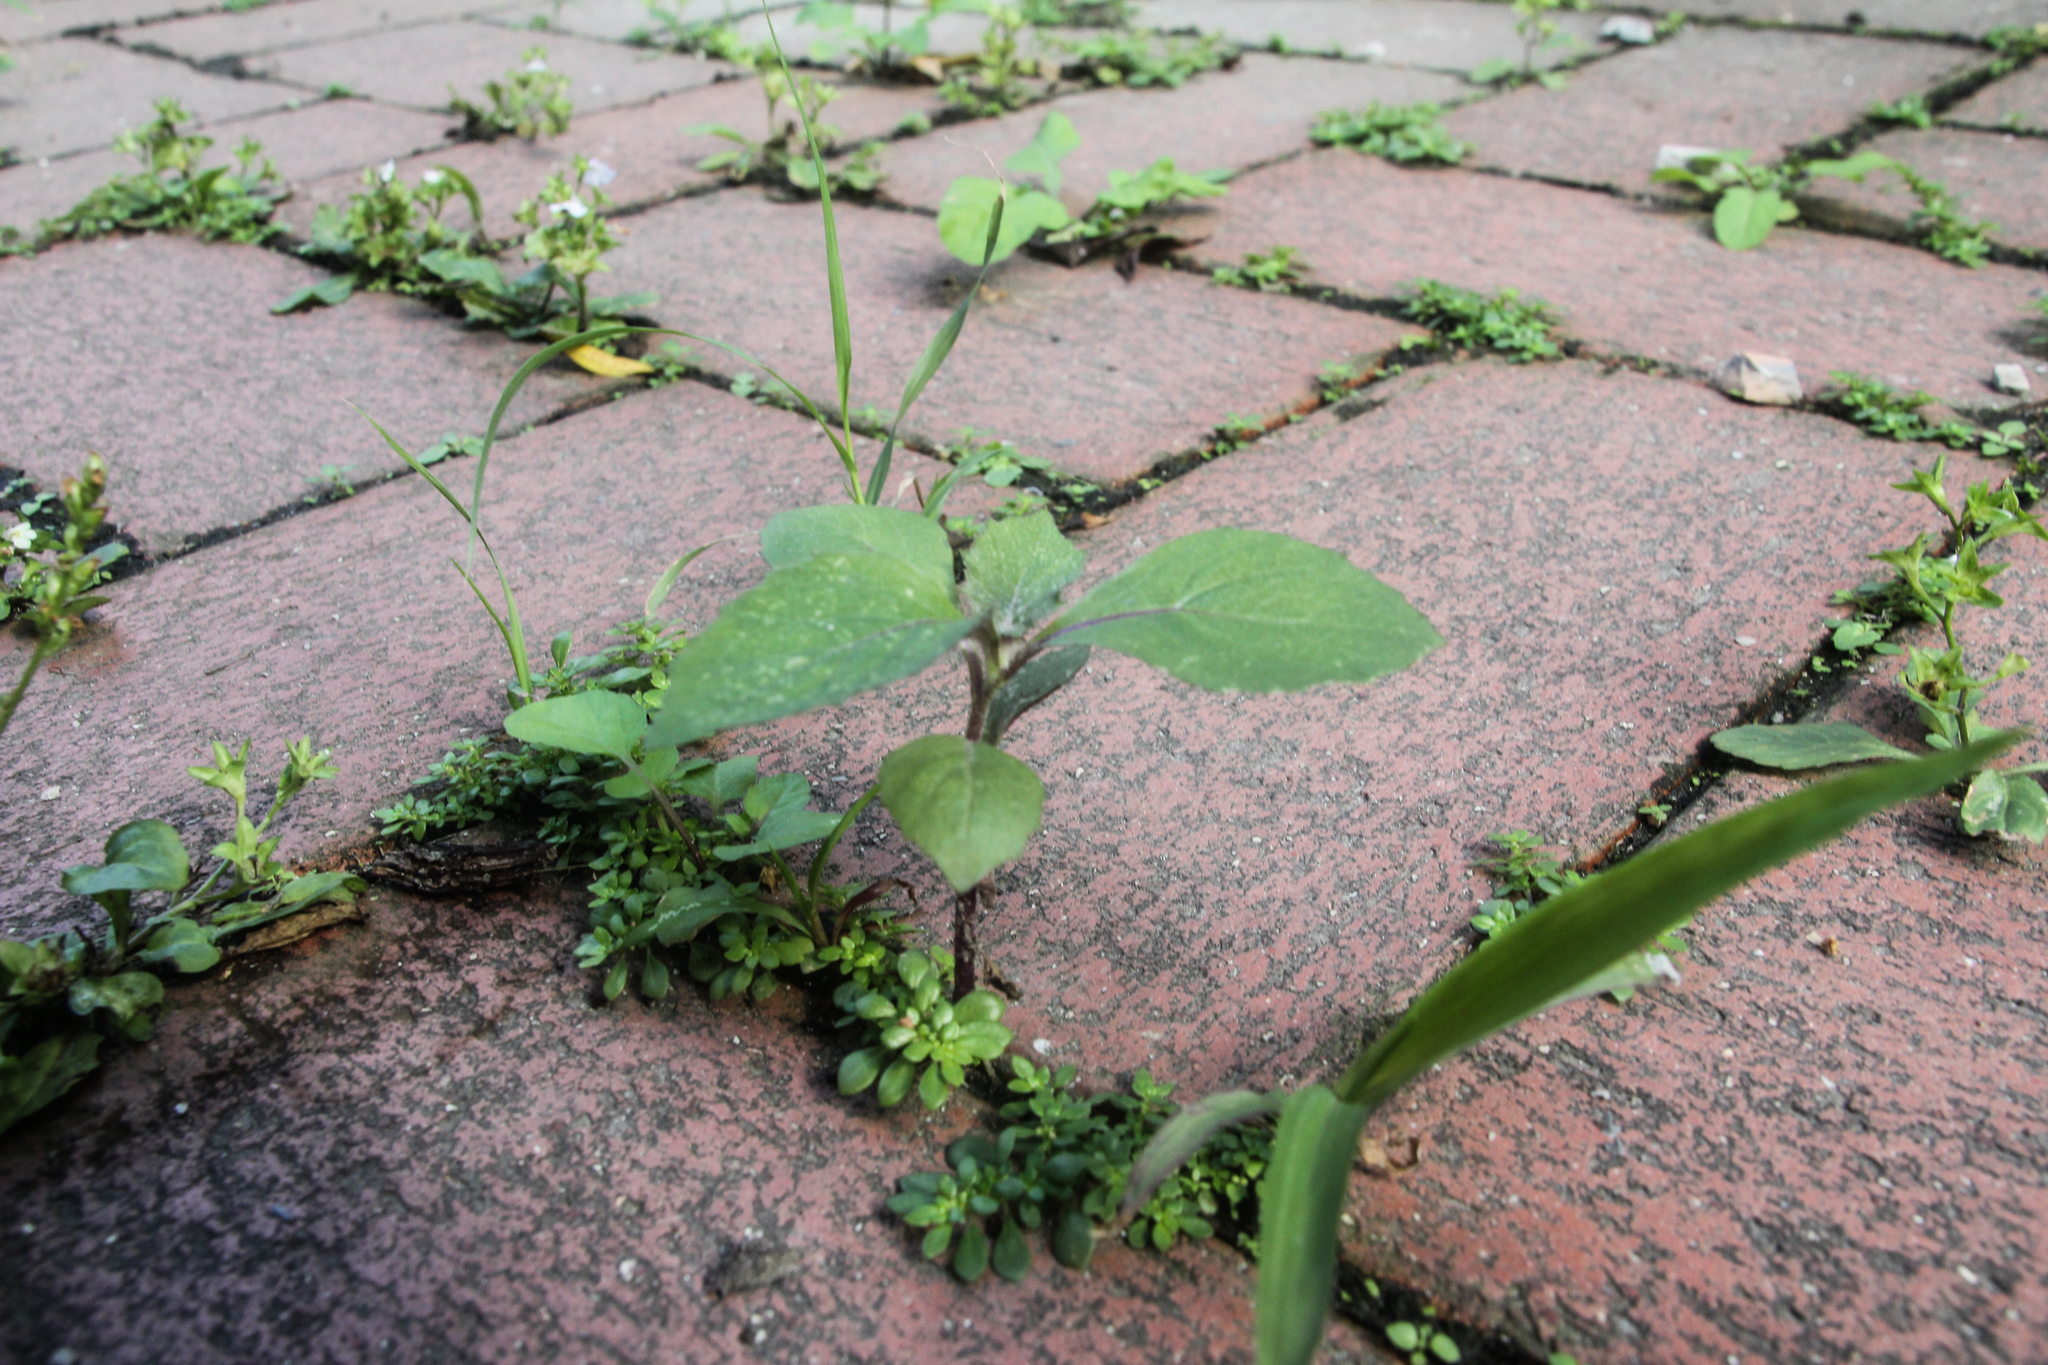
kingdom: Plantae
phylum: Tracheophyta
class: Magnoliopsida
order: Asterales
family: Asteraceae
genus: Crassocephalum
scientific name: Crassocephalum crepidioides
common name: Redflower ragleaf
